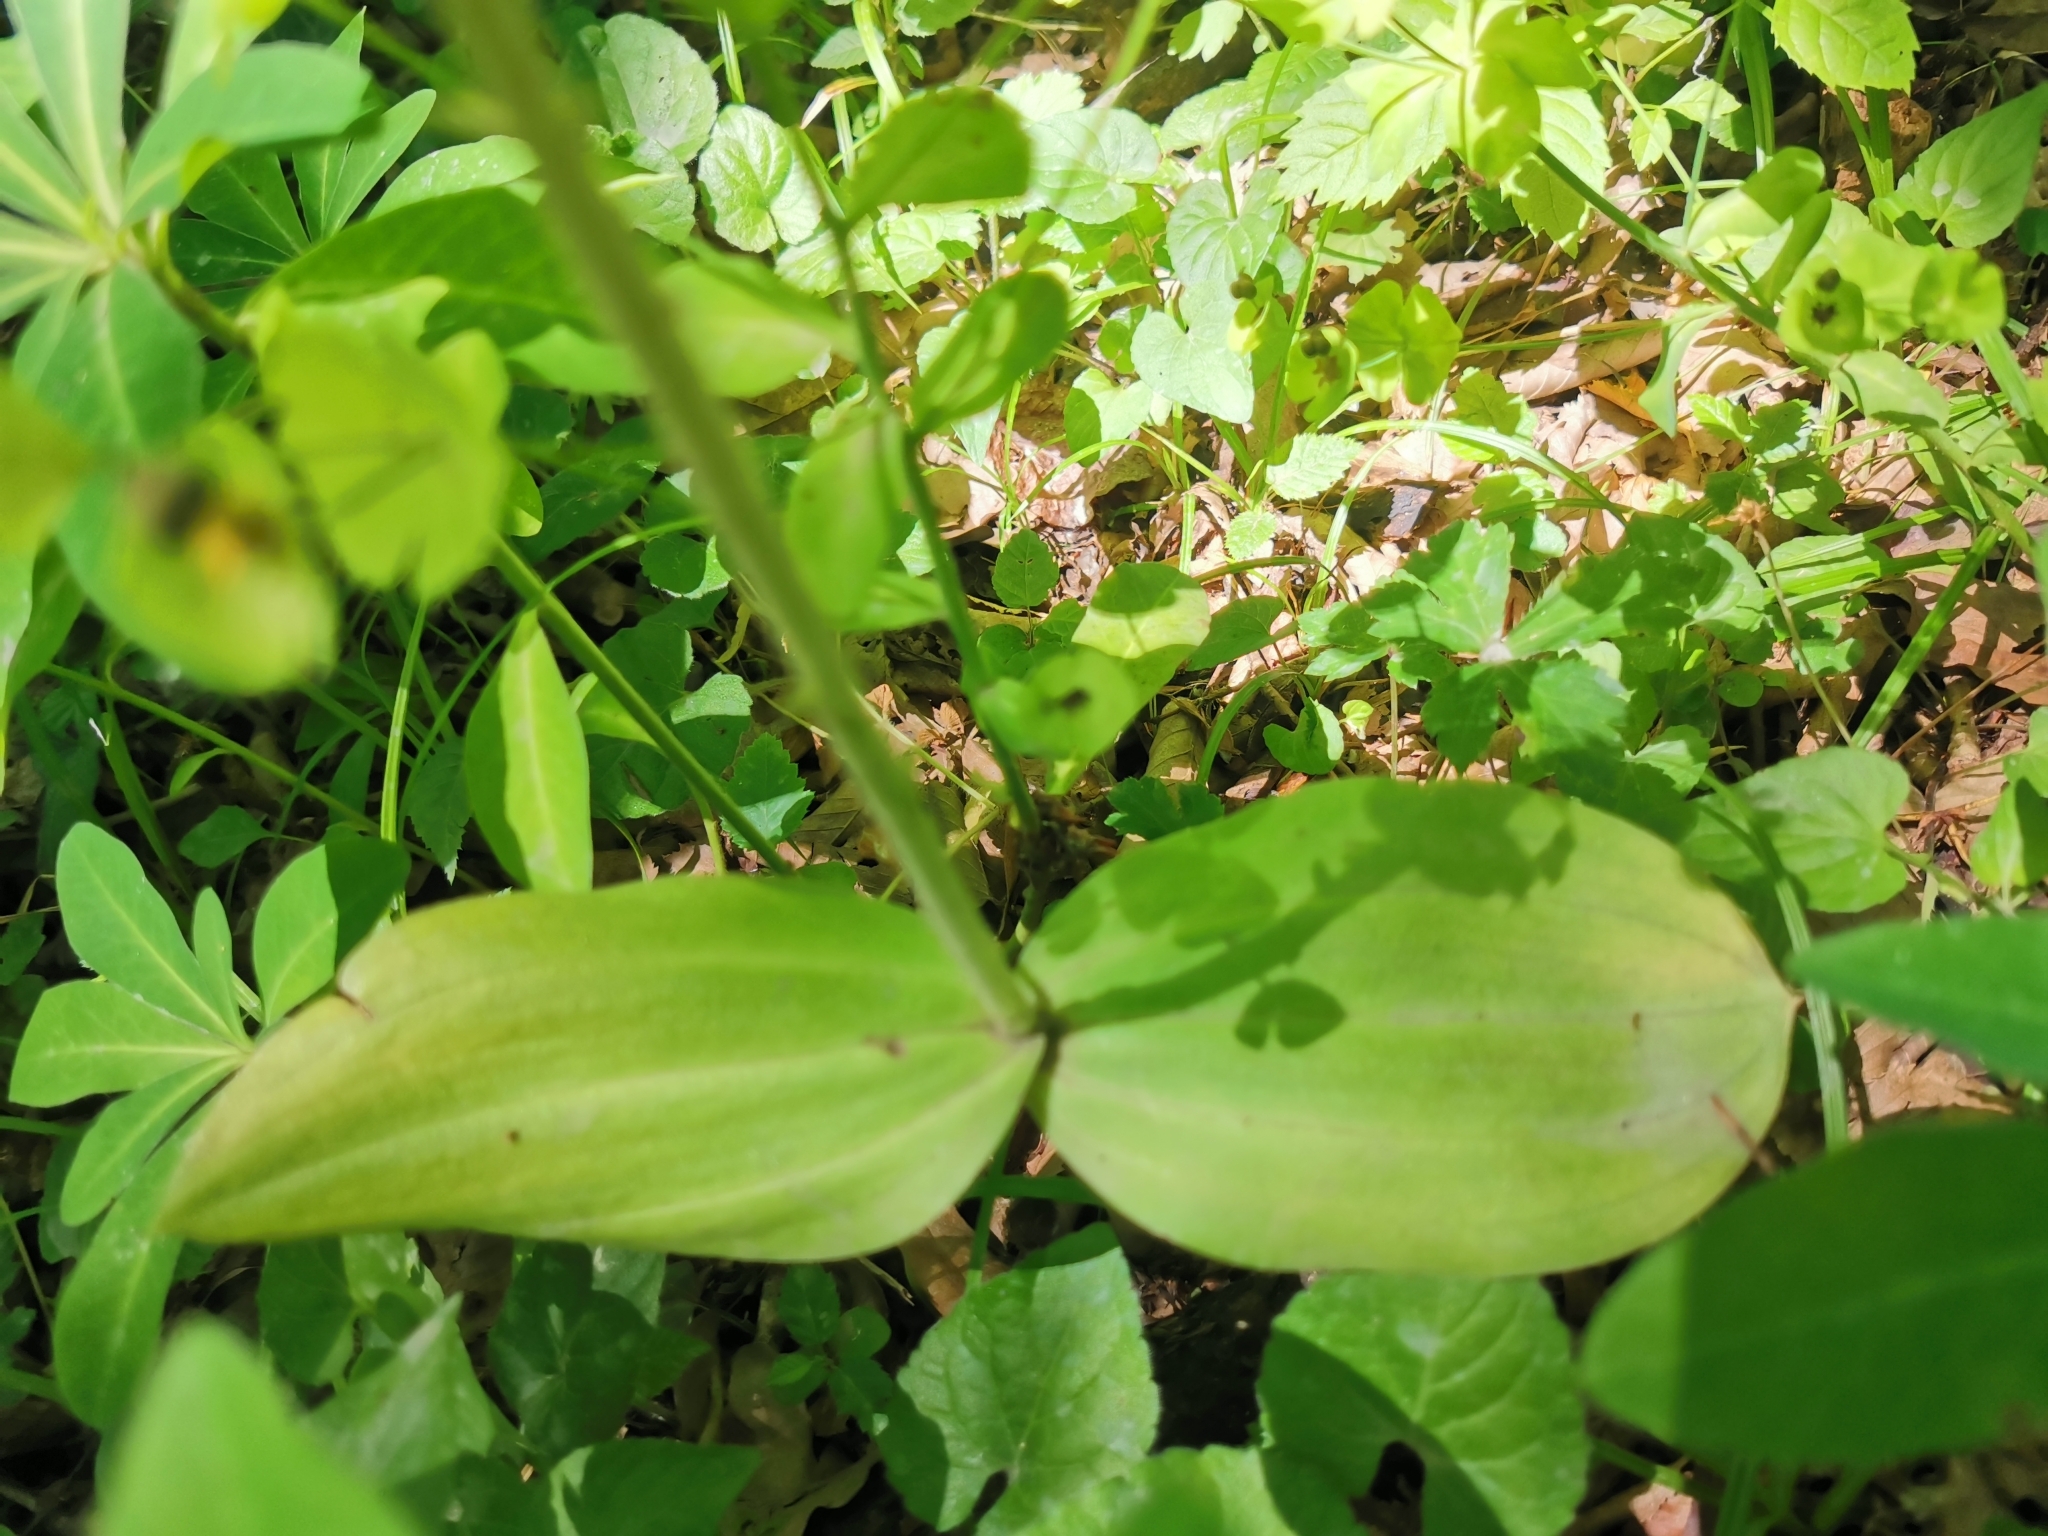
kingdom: Plantae
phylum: Tracheophyta
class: Liliopsida
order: Asparagales
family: Orchidaceae
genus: Neottia
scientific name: Neottia ovata
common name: Common twayblade
